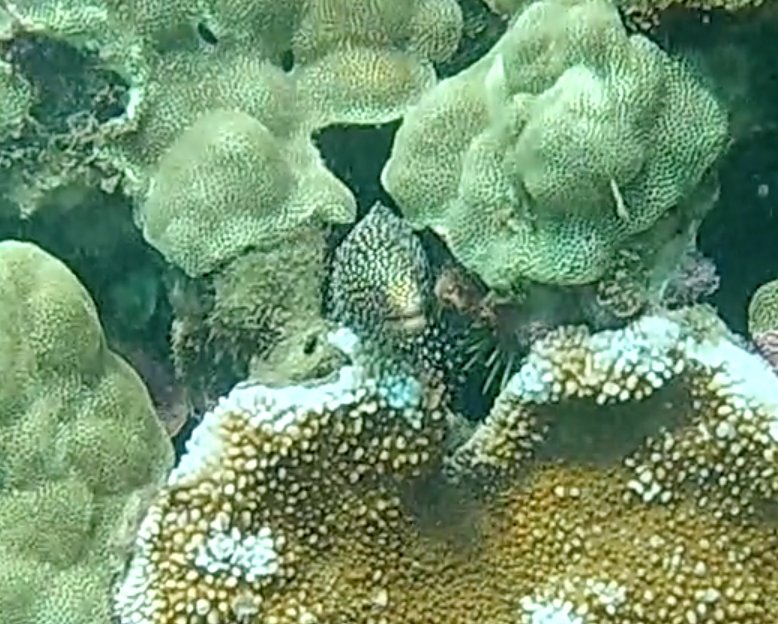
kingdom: Animalia
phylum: Chordata
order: Anguilliformes
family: Muraenidae
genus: Gymnothorax
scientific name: Gymnothorax meleagris
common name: Guineafowl moray
